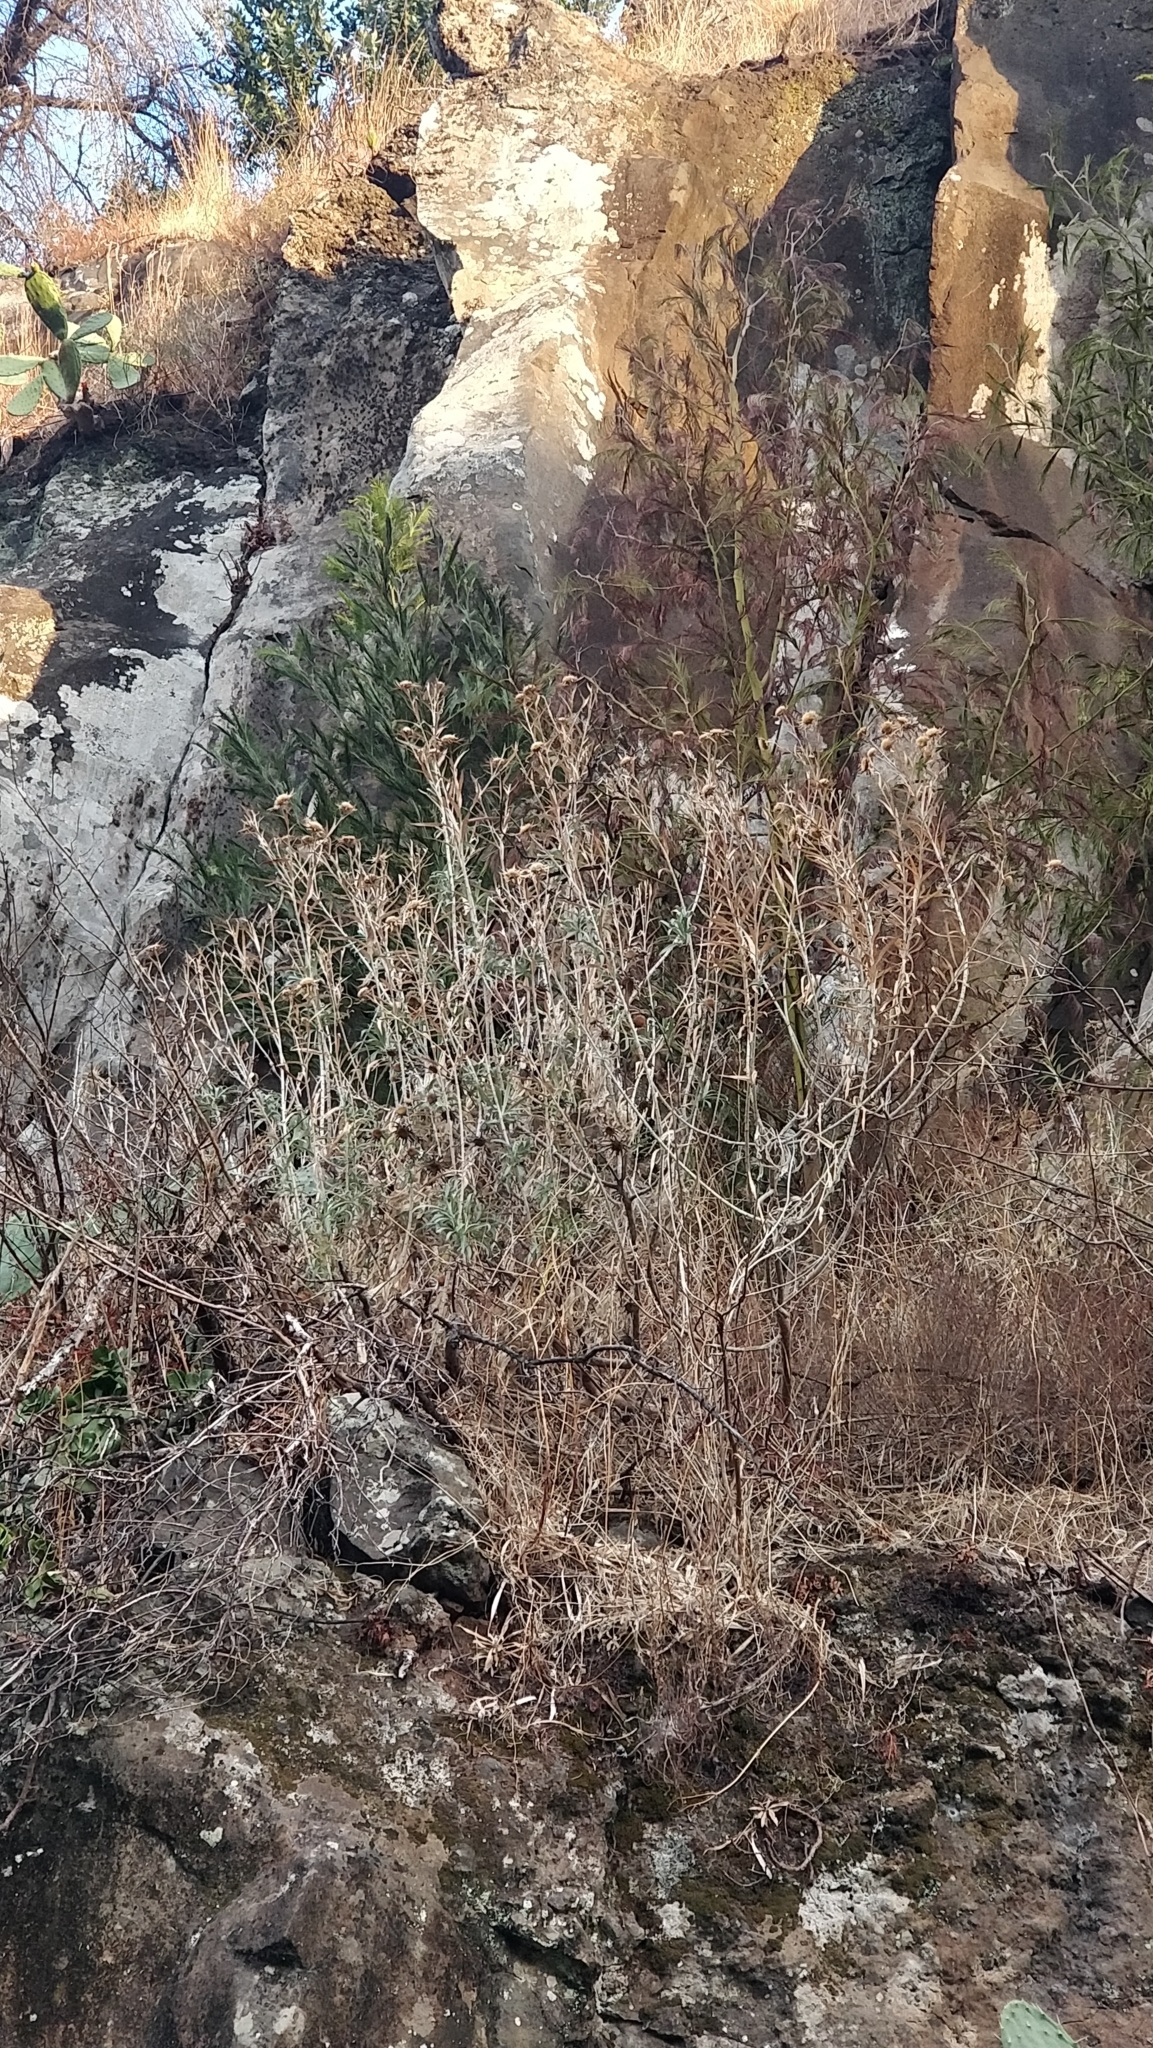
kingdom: Plantae
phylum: Tracheophyta
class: Magnoliopsida
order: Asterales
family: Asteraceae
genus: Carlina
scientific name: Carlina salicifolia
